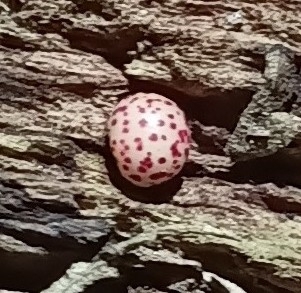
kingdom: Animalia
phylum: Arthropoda
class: Insecta
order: Hymenoptera
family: Cynipidae
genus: Neuroterus
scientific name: Neuroterus anthracinus
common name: Oyster gall
